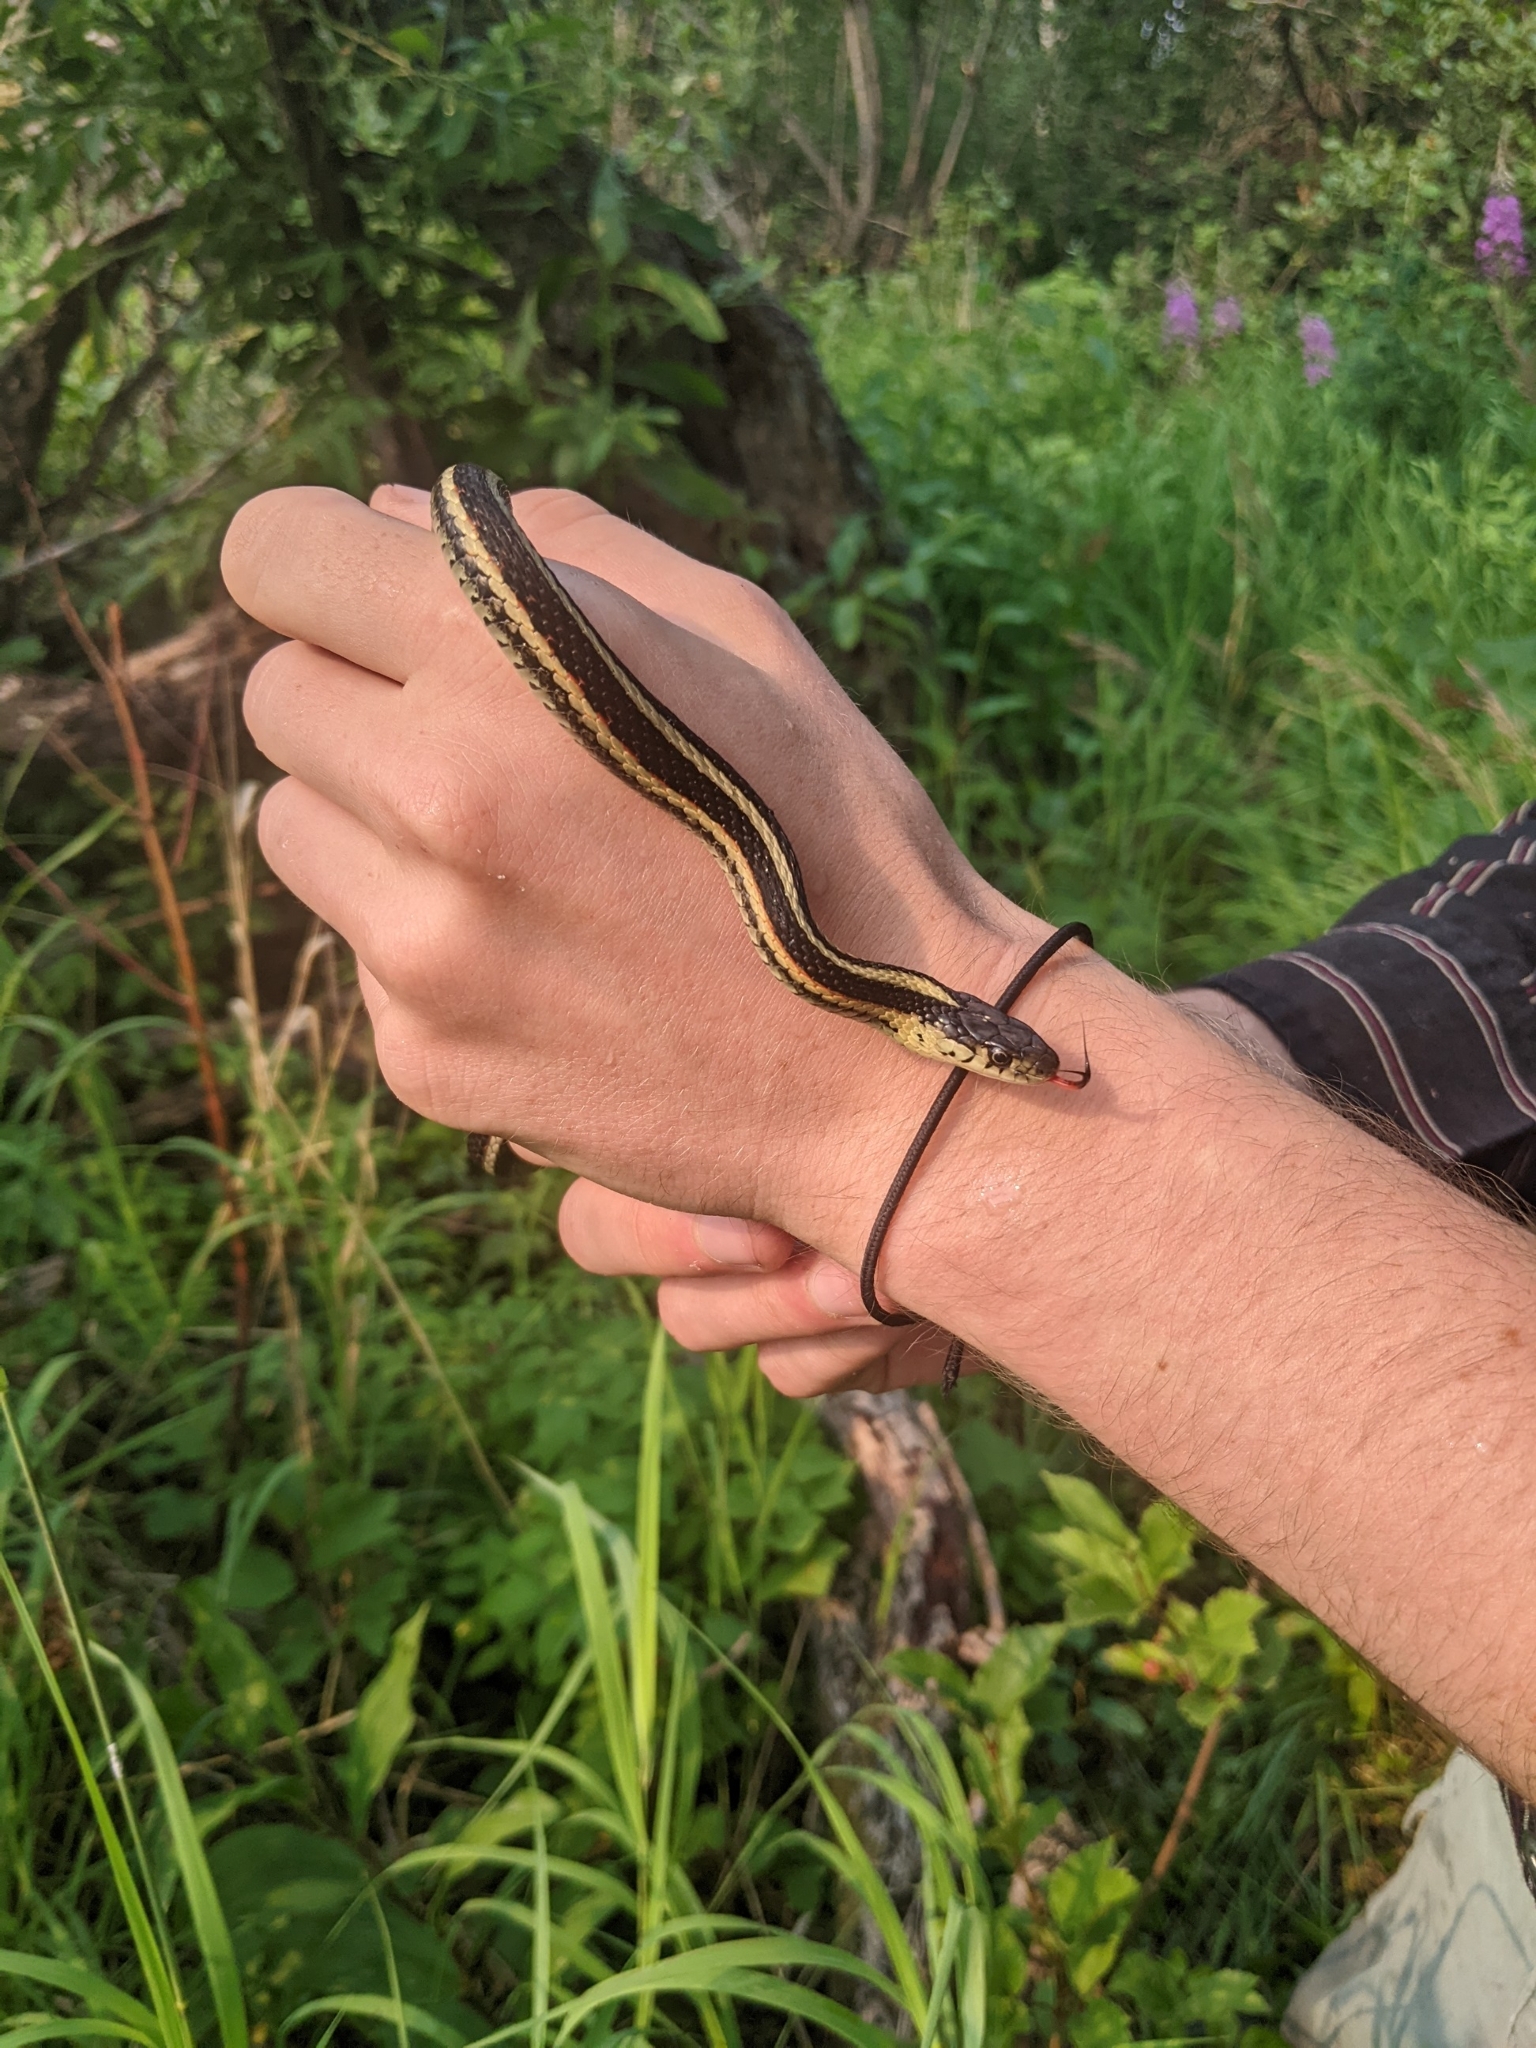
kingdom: Animalia
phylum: Chordata
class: Squamata
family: Colubridae
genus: Thamnophis
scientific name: Thamnophis sirtalis
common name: Common garter snake
